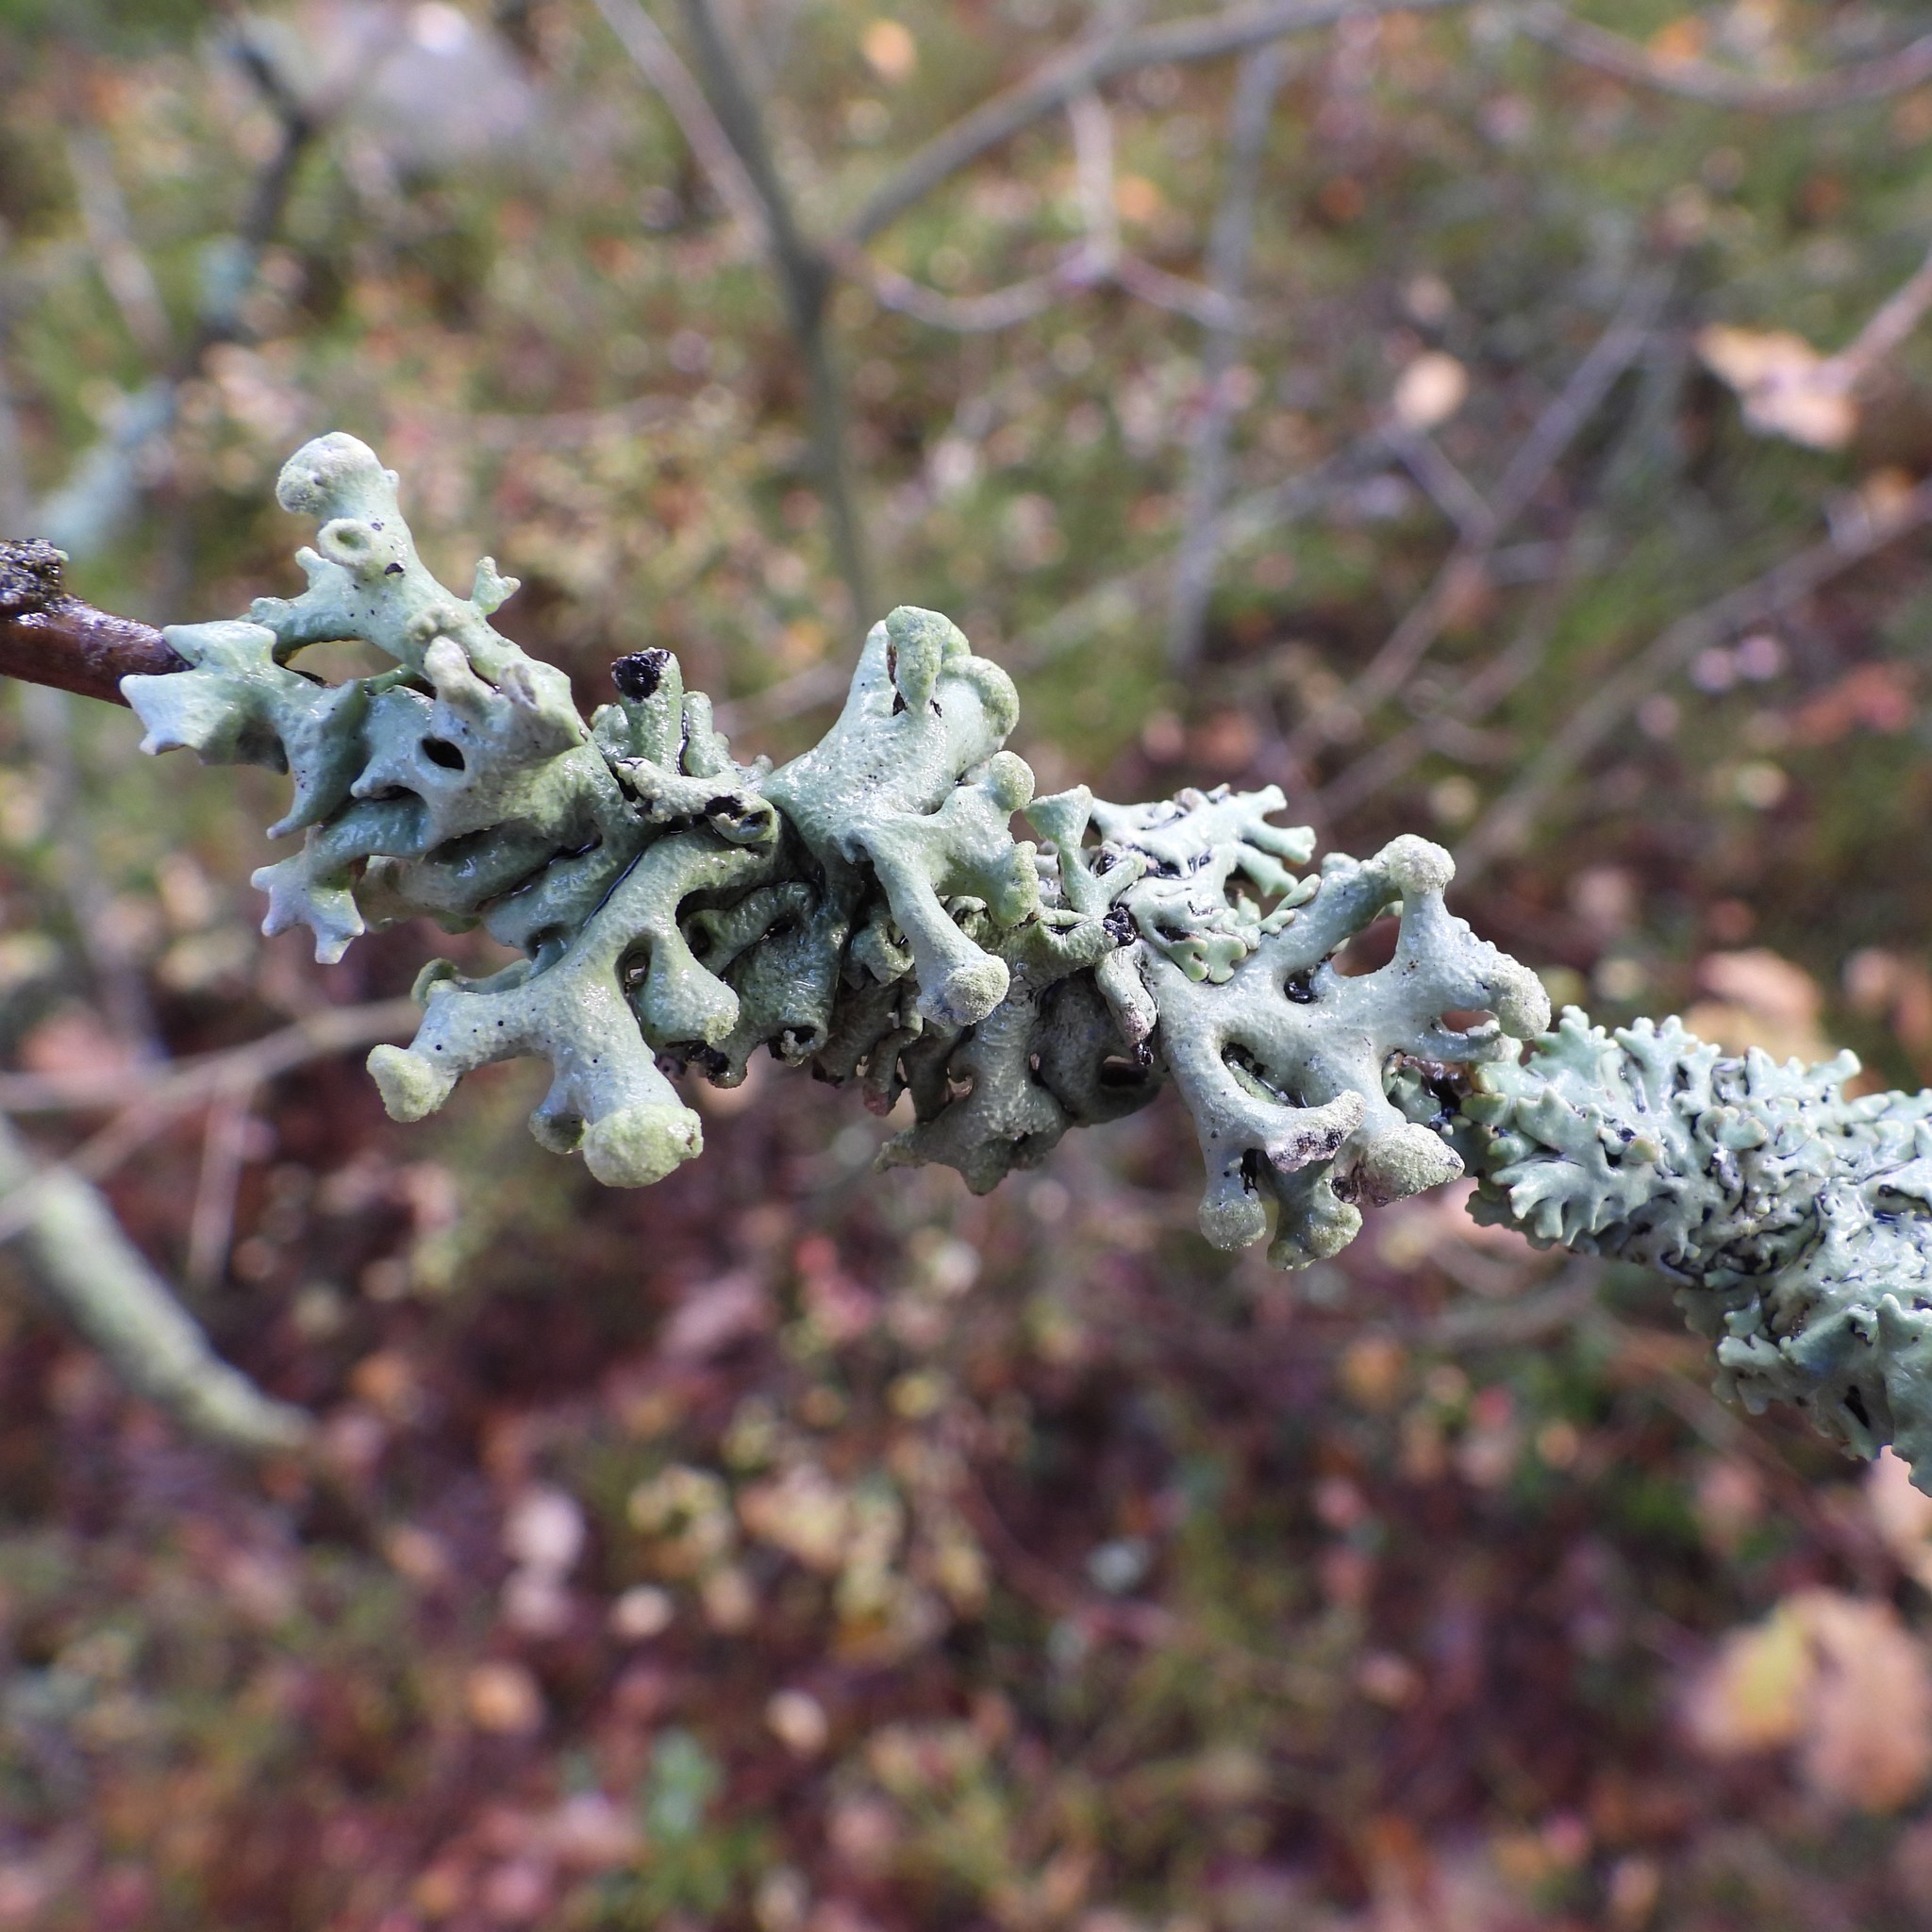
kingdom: Fungi
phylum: Ascomycota
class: Lecanoromycetes
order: Lecanorales
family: Parmeliaceae
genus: Hypogymnia
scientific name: Hypogymnia tubulosa
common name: Powder-headed tube lichen
